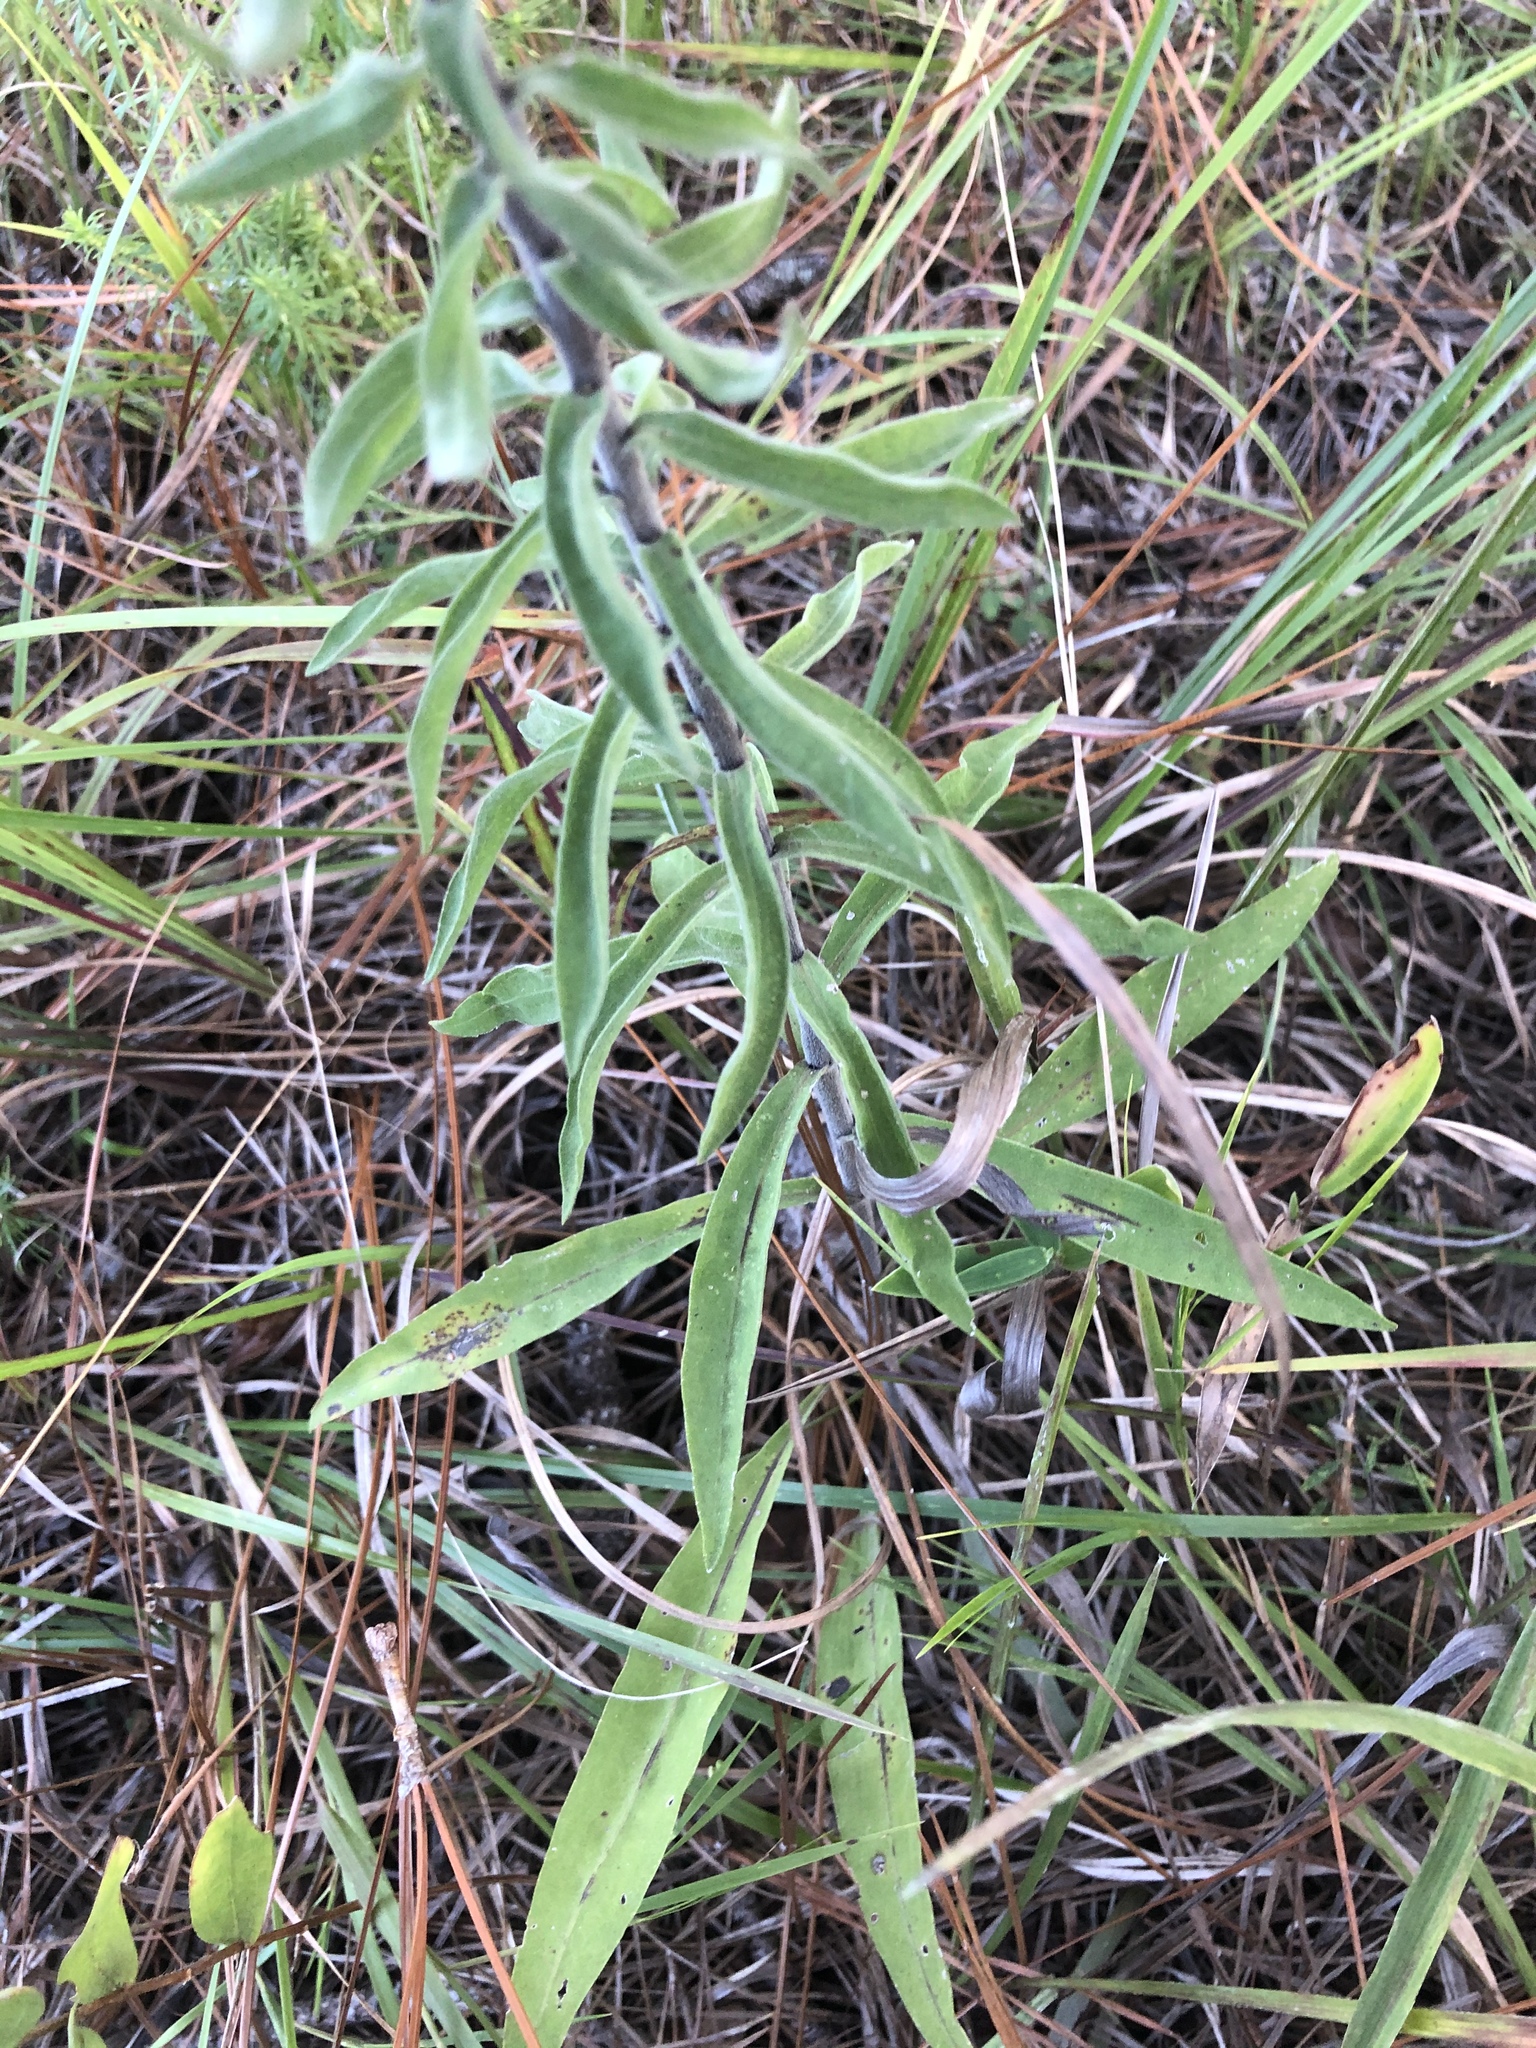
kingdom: Plantae
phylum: Tracheophyta
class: Magnoliopsida
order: Asterales
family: Asteraceae
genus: Liatris
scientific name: Liatris squarrulosa
